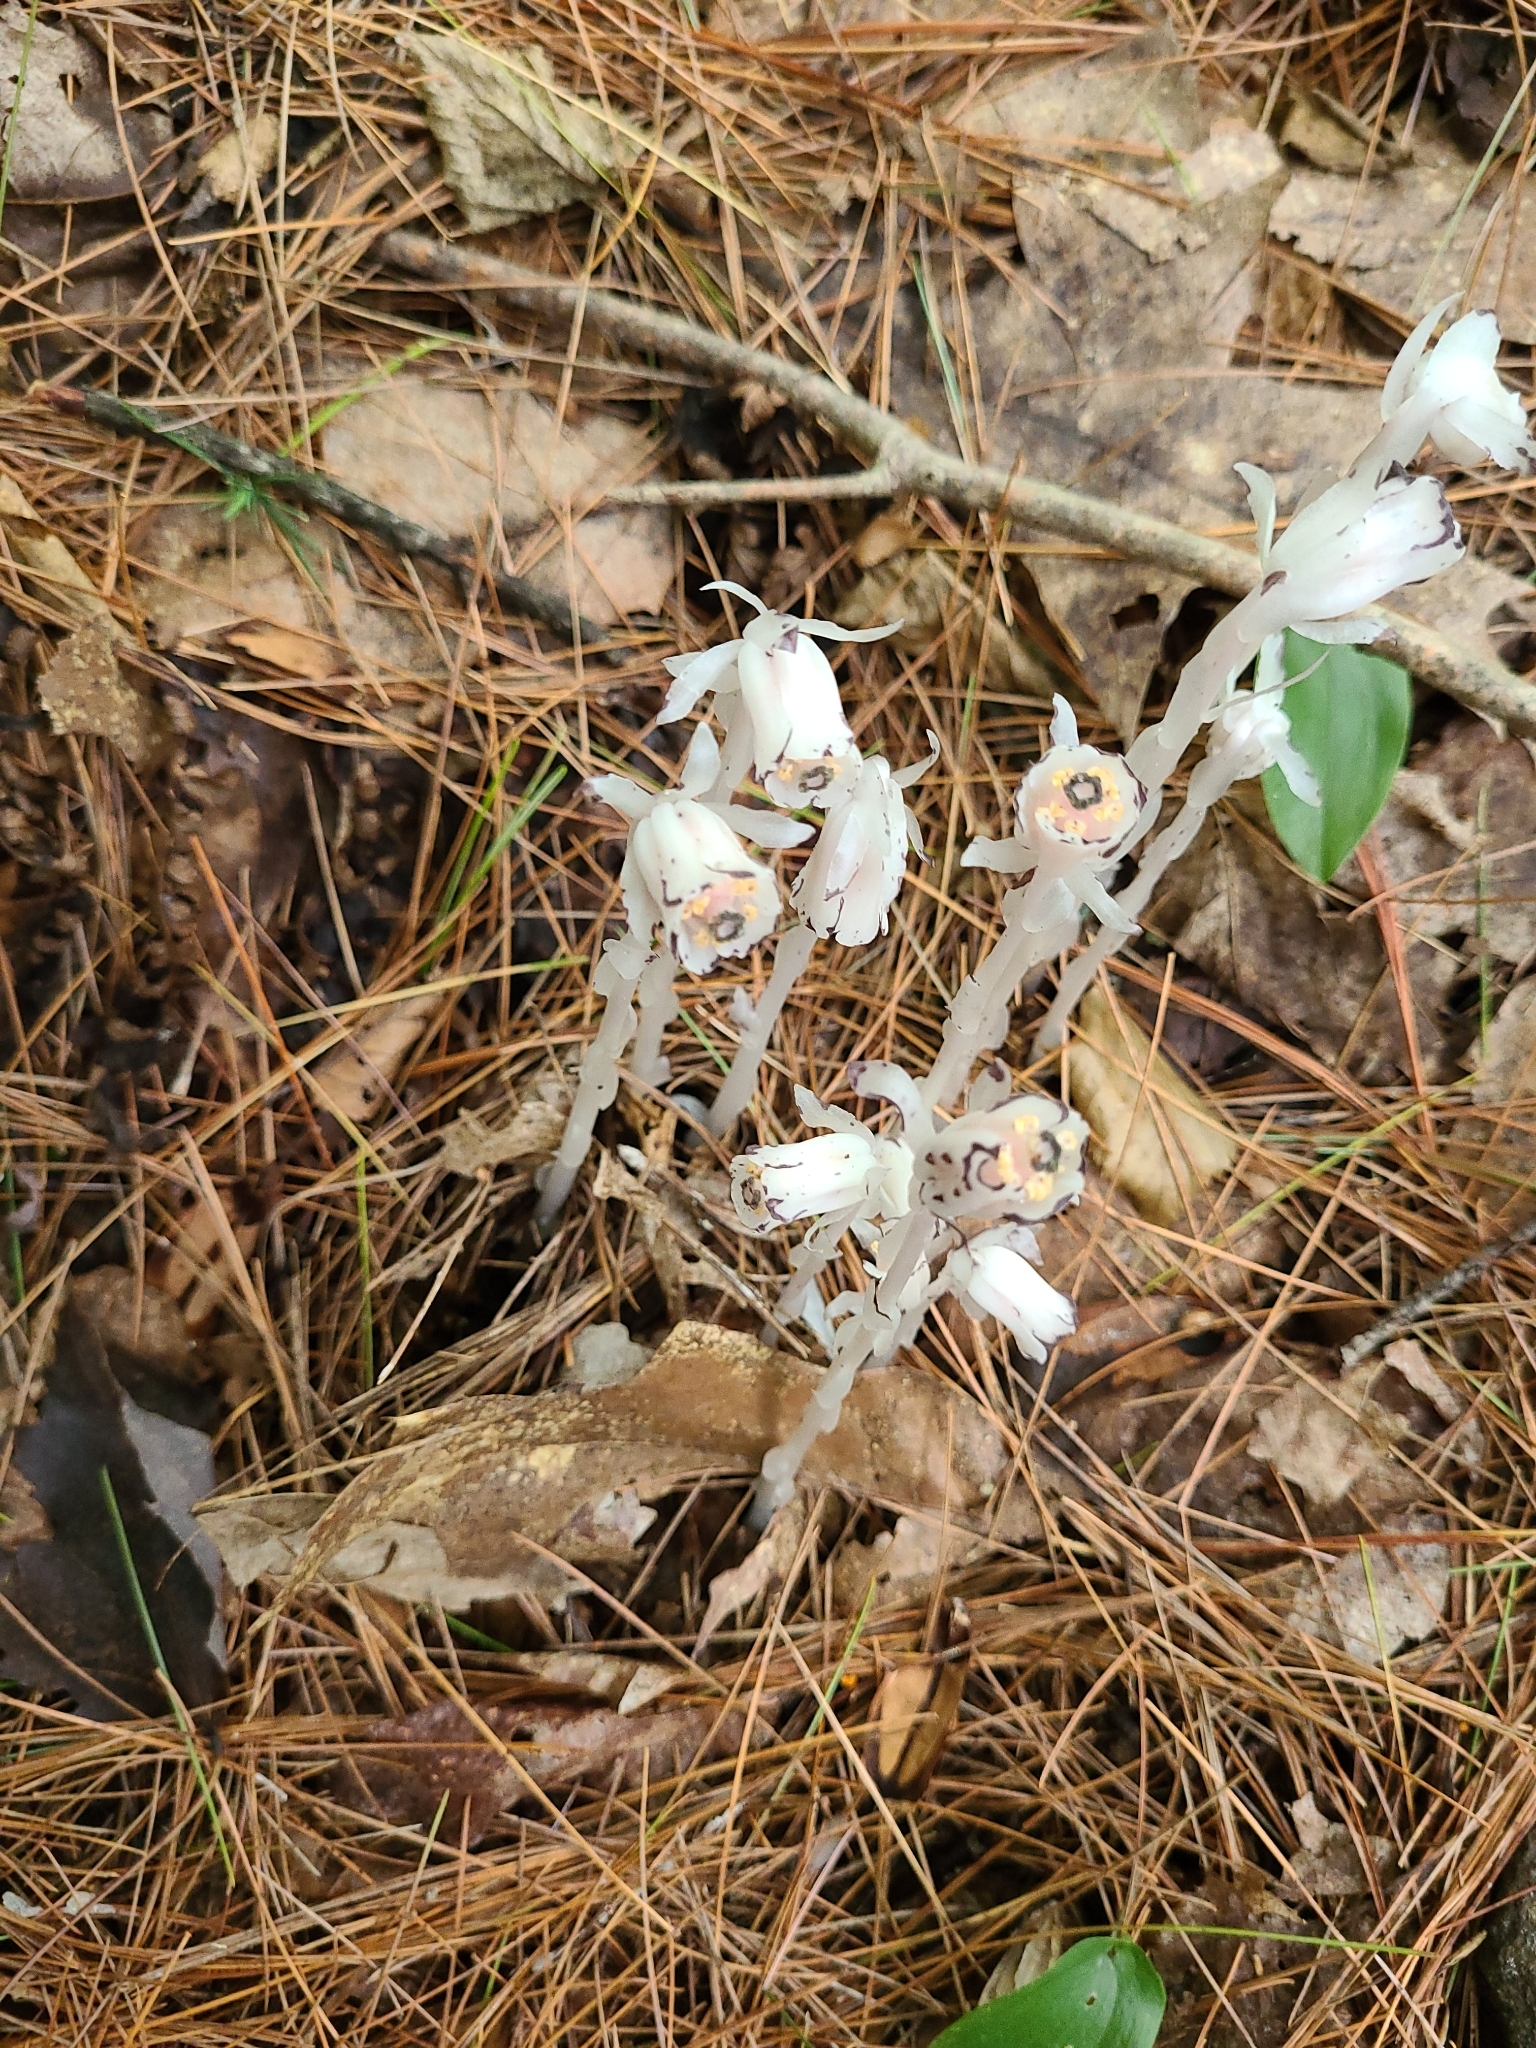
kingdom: Plantae
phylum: Tracheophyta
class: Magnoliopsida
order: Ericales
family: Ericaceae
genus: Monotropa
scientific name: Monotropa uniflora
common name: Convulsion root
